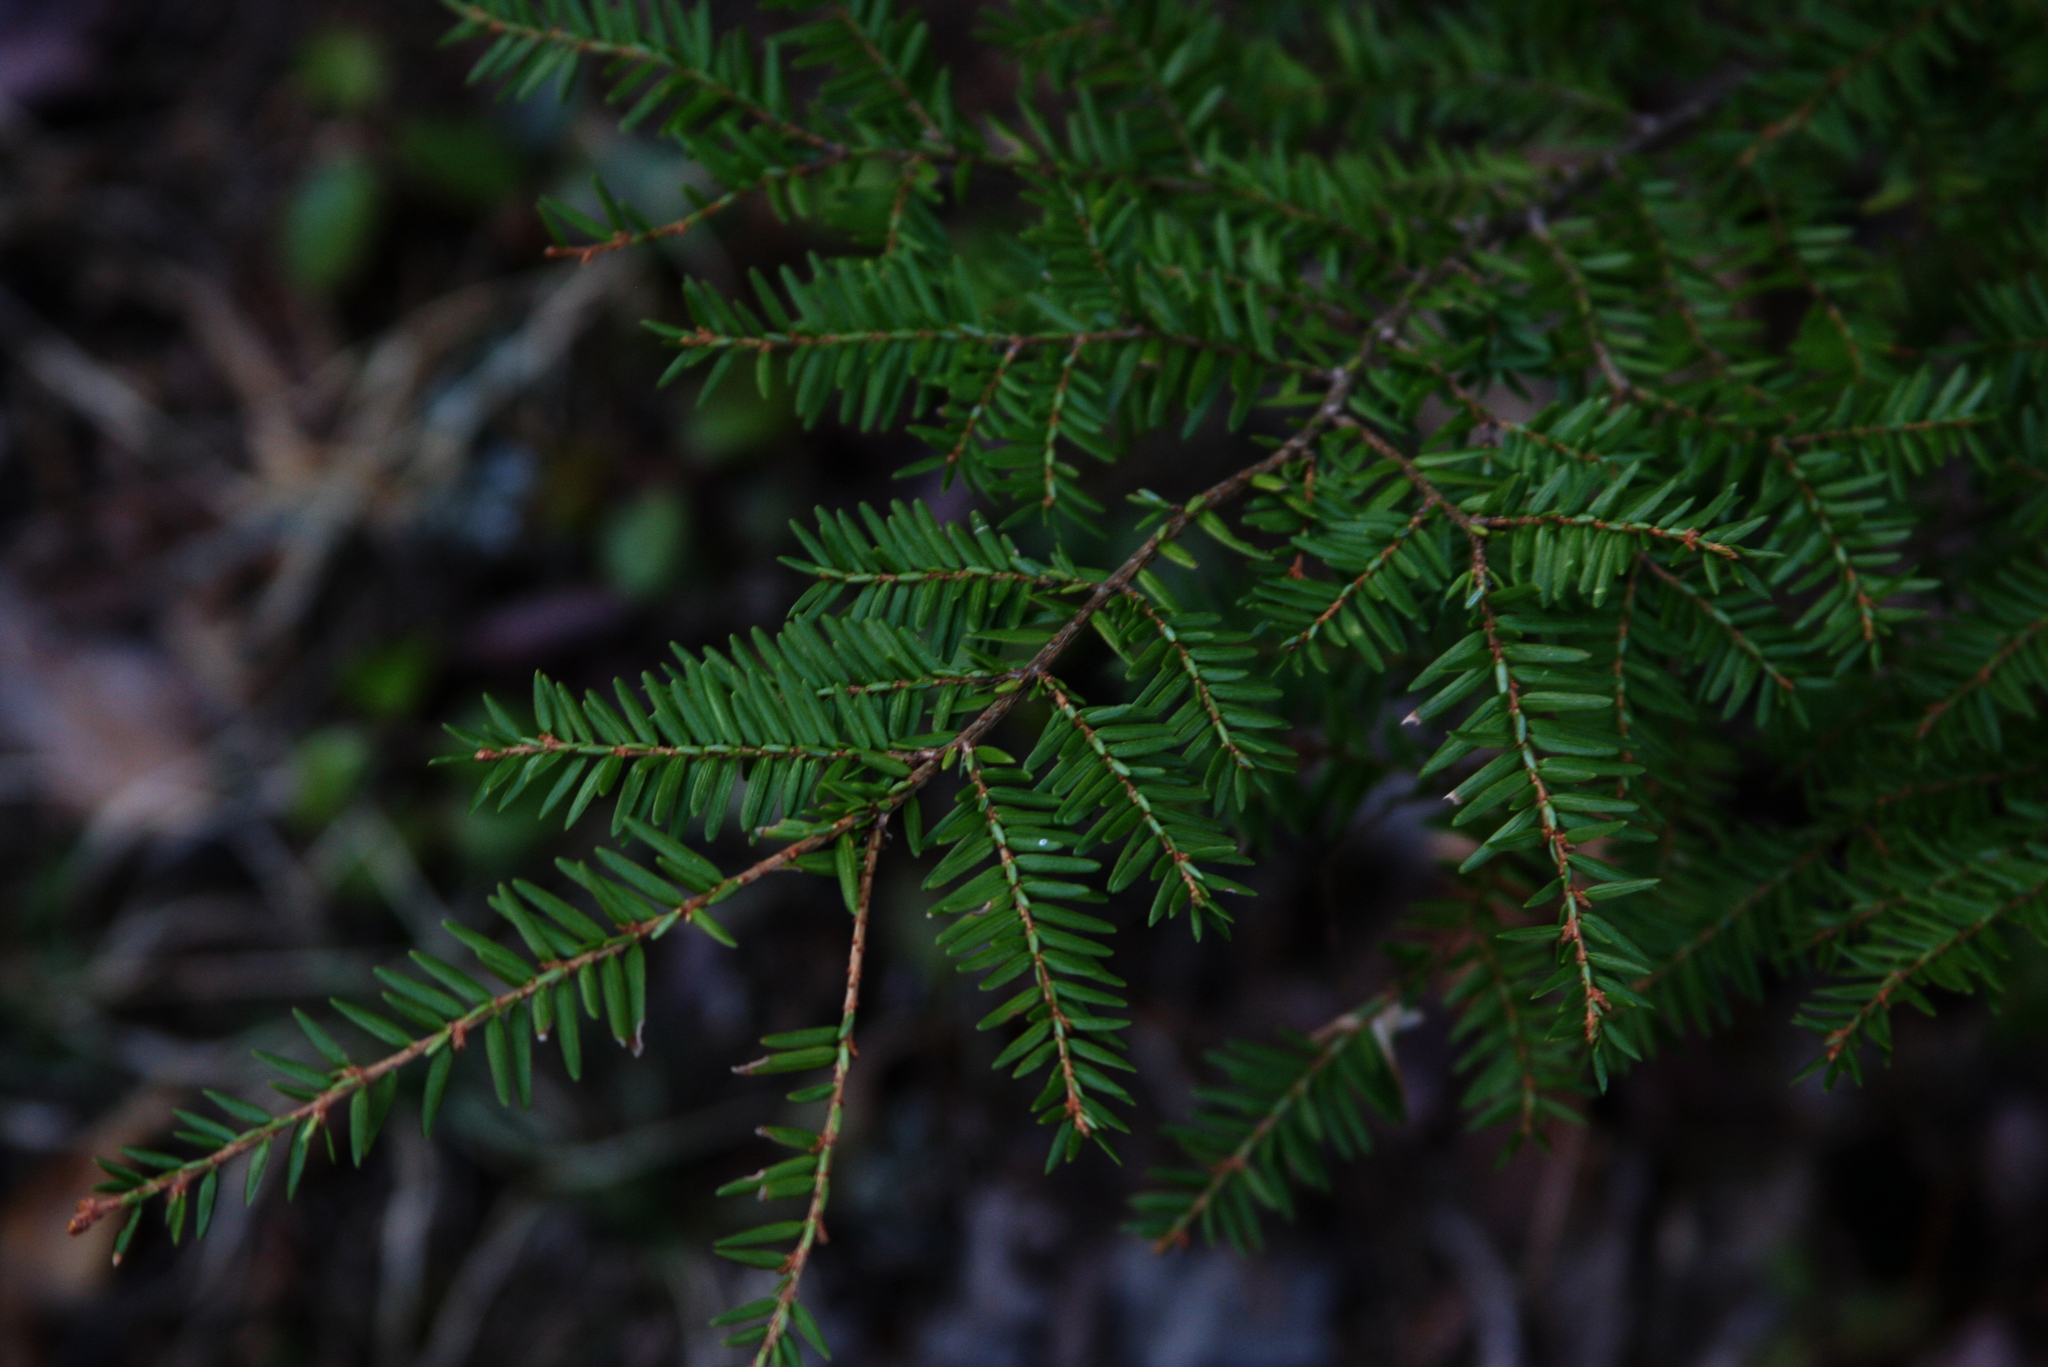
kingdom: Plantae
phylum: Tracheophyta
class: Pinopsida
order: Pinales
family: Pinaceae
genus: Tsuga
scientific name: Tsuga canadensis
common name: Eastern hemlock
